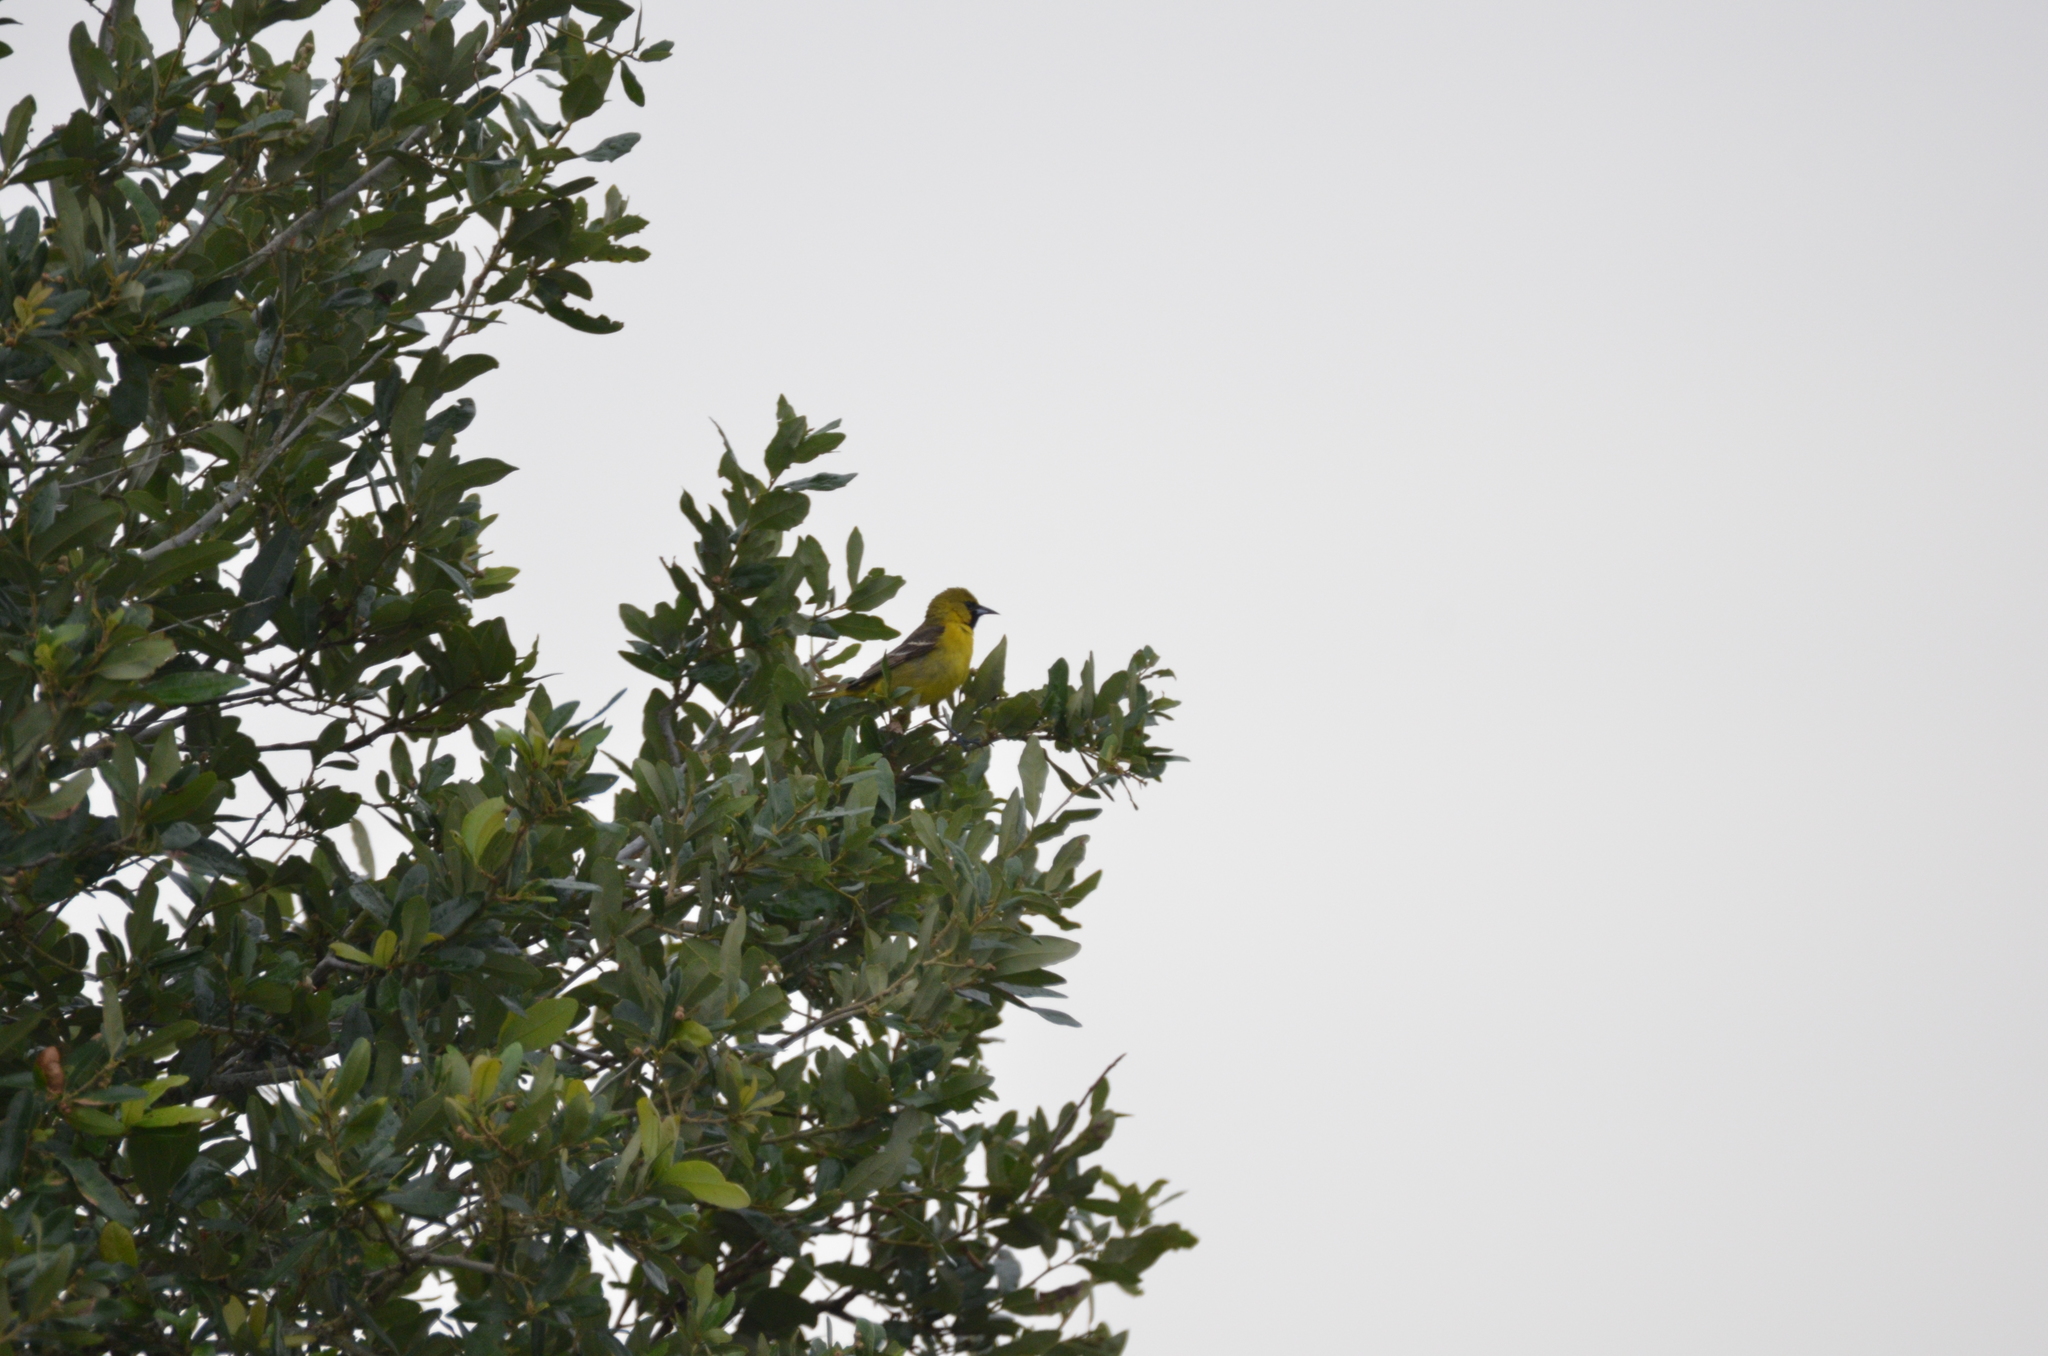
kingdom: Animalia
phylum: Chordata
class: Aves
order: Passeriformes
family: Icteridae
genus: Icterus
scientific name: Icterus spurius
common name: Orchard oriole
